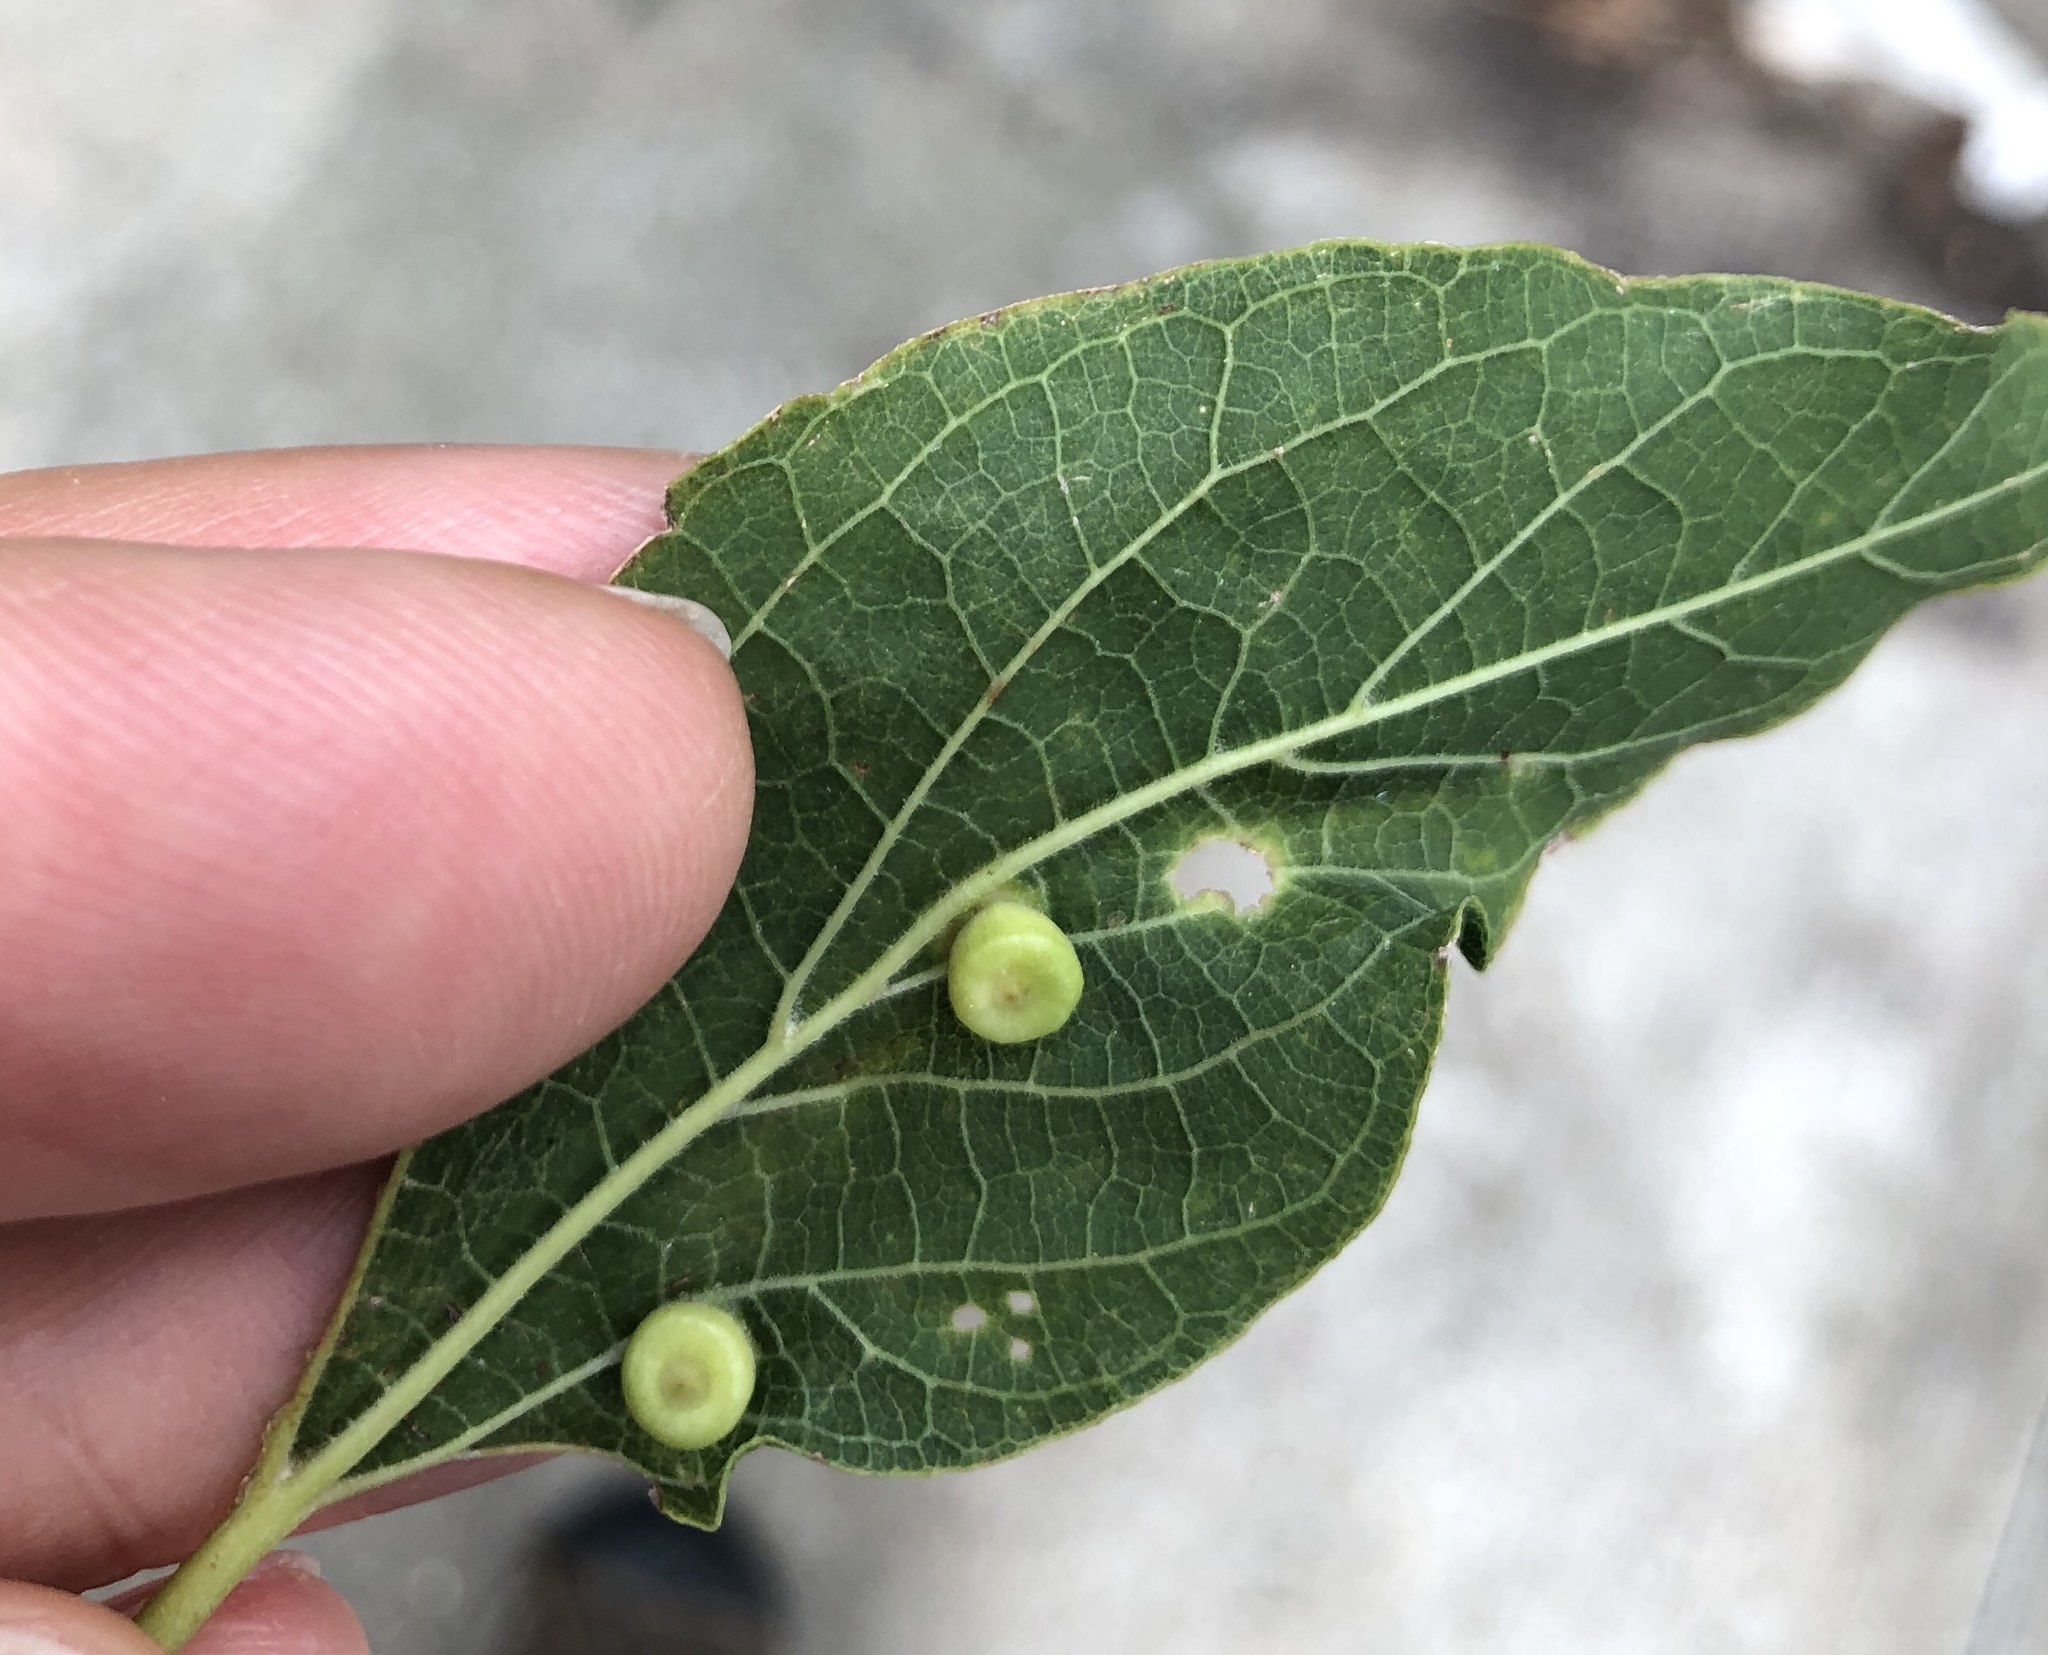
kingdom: Animalia
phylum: Arthropoda
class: Insecta
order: Hemiptera
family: Aphalaridae
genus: Pachypsylla
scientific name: Pachypsylla celtidismamma
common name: Hackberry nipplegall psyllid
